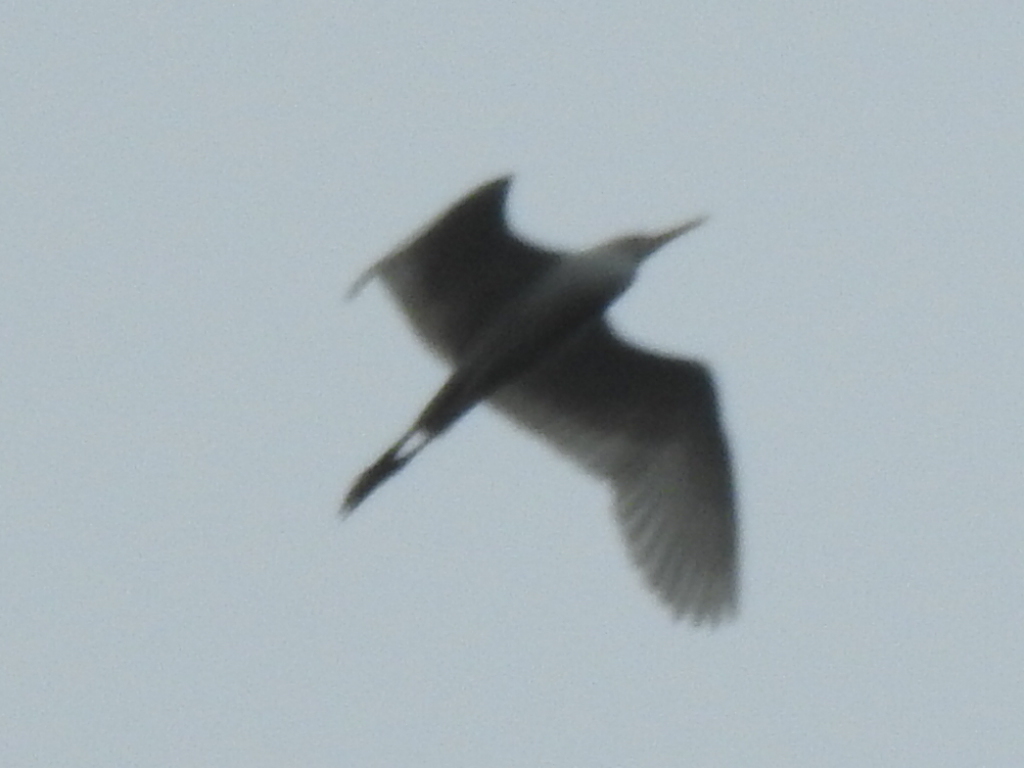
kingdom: Animalia
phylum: Chordata
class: Aves
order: Pelecaniformes
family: Ardeidae
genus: Ardea
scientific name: Ardea alba
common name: Great egret
